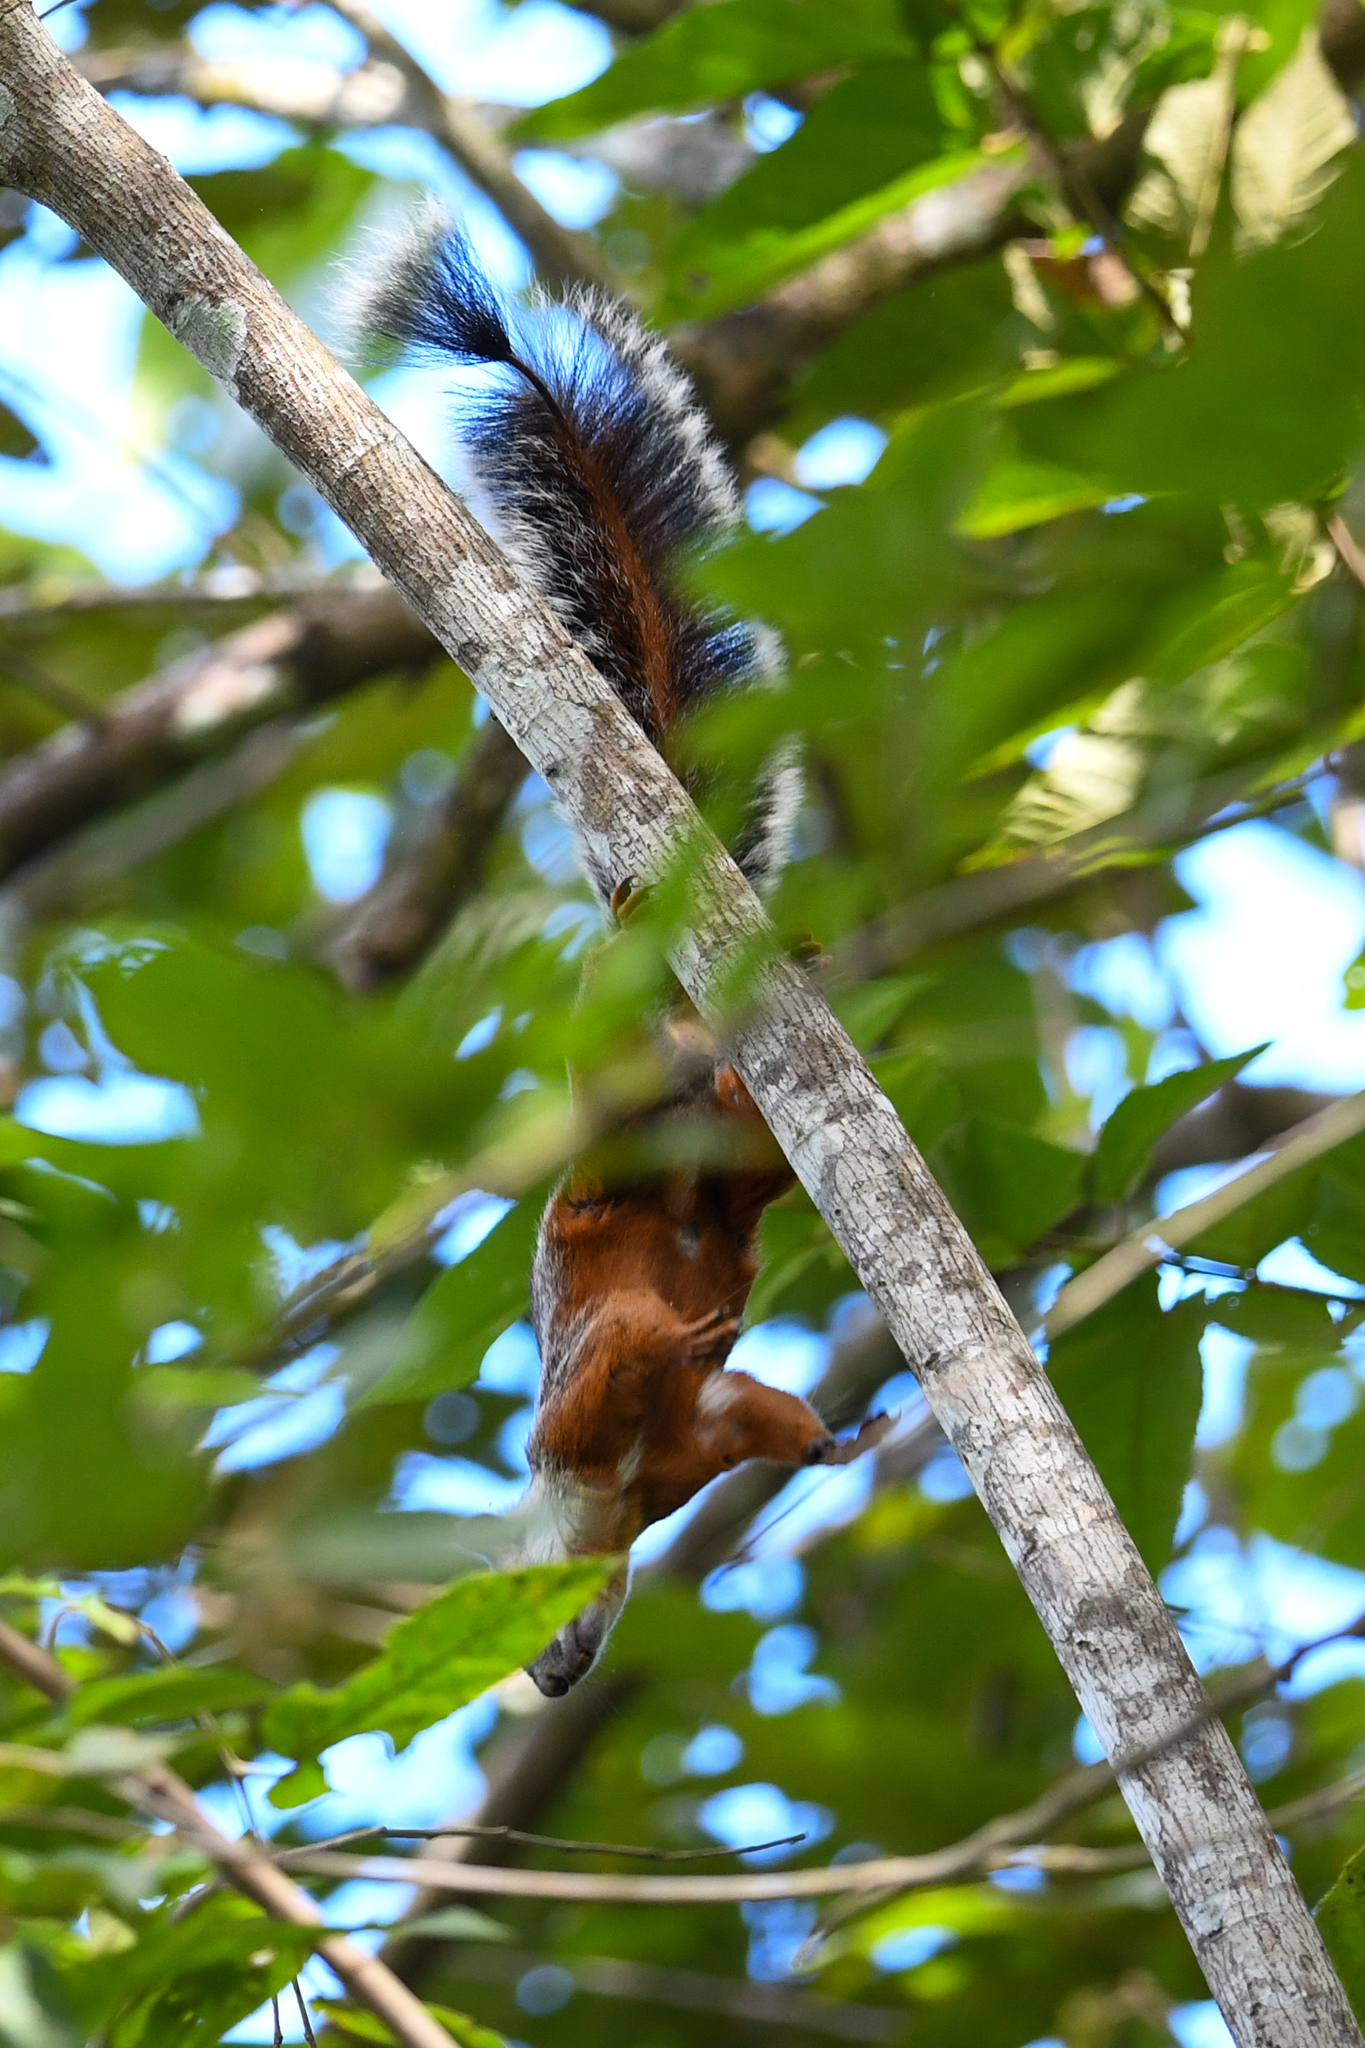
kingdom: Animalia
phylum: Chordata
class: Mammalia
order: Rodentia
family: Sciuridae
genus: Sciurus
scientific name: Sciurus variegatoides
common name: Variegated squirrel
